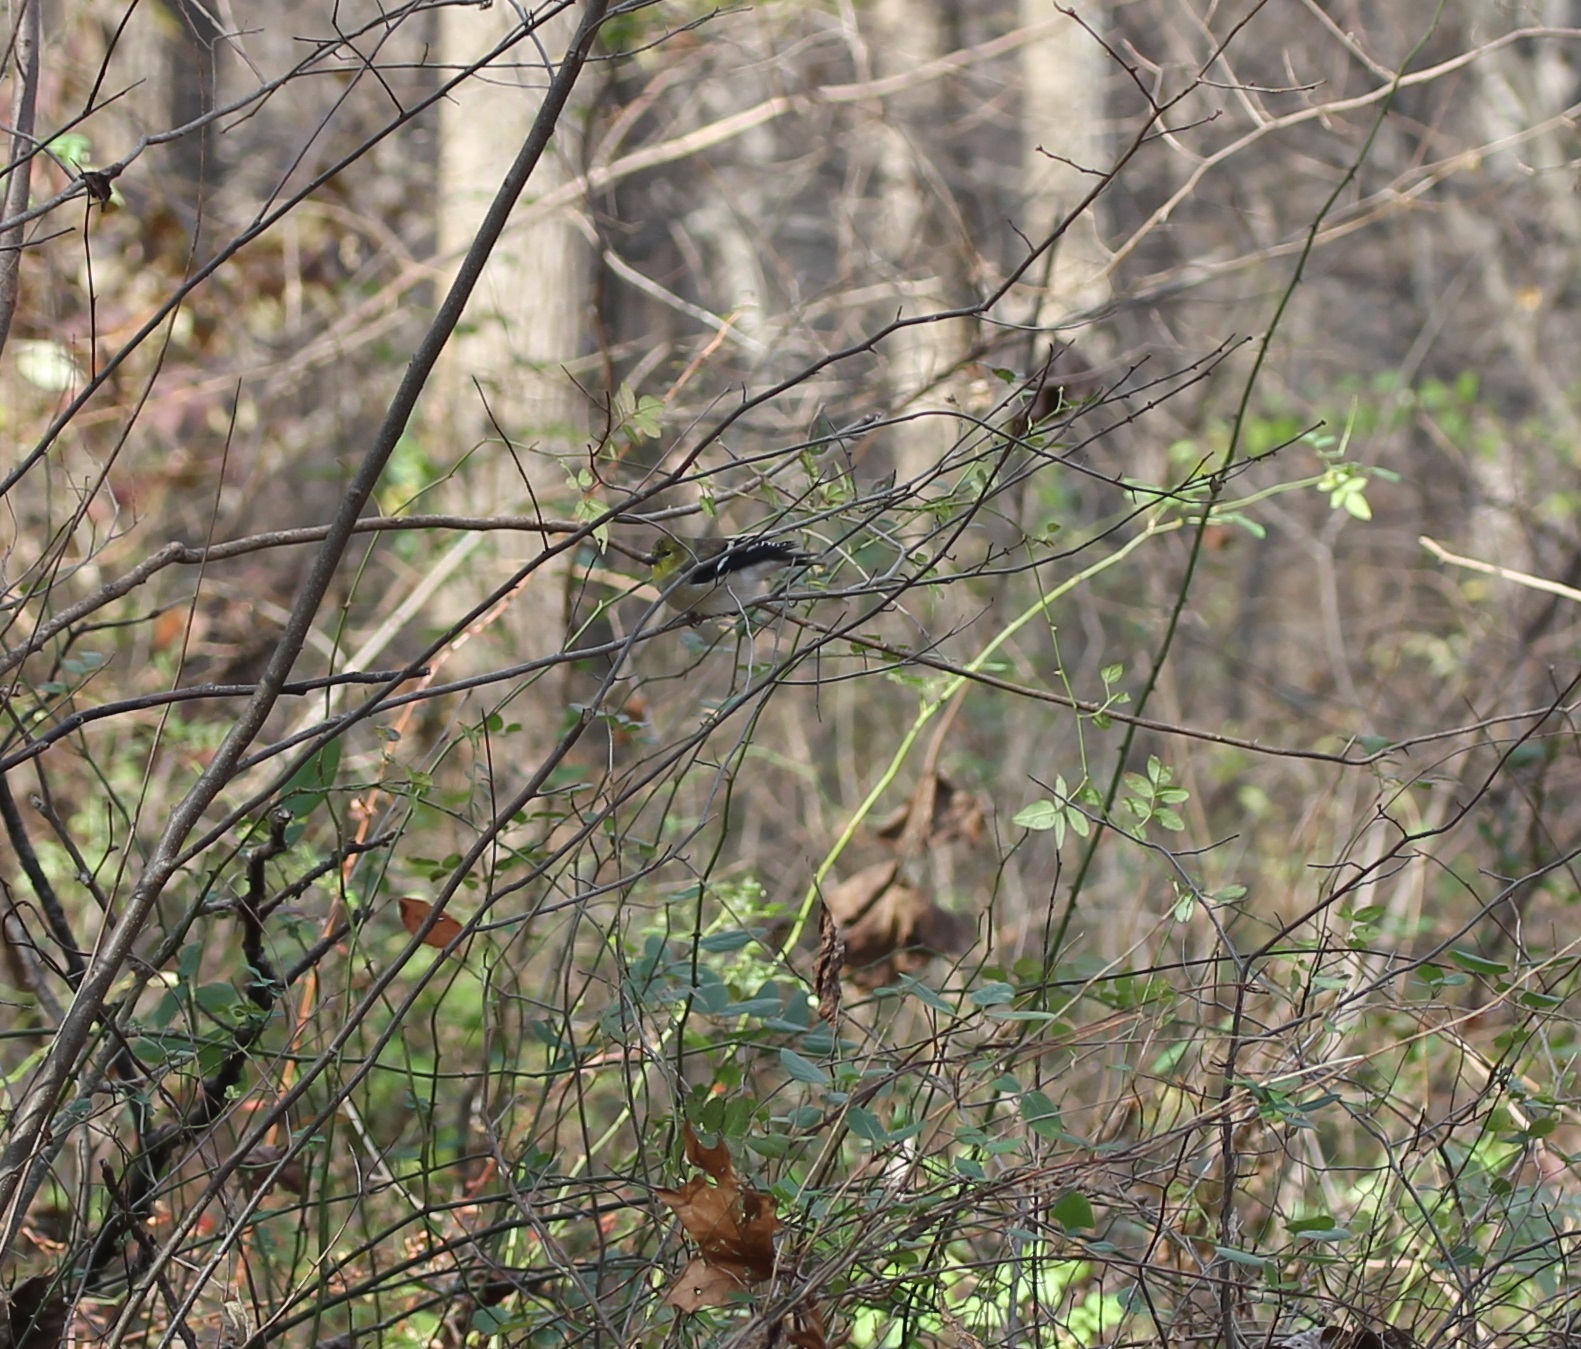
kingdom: Animalia
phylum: Chordata
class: Aves
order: Passeriformes
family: Fringillidae
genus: Spinus
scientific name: Spinus tristis
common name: American goldfinch
